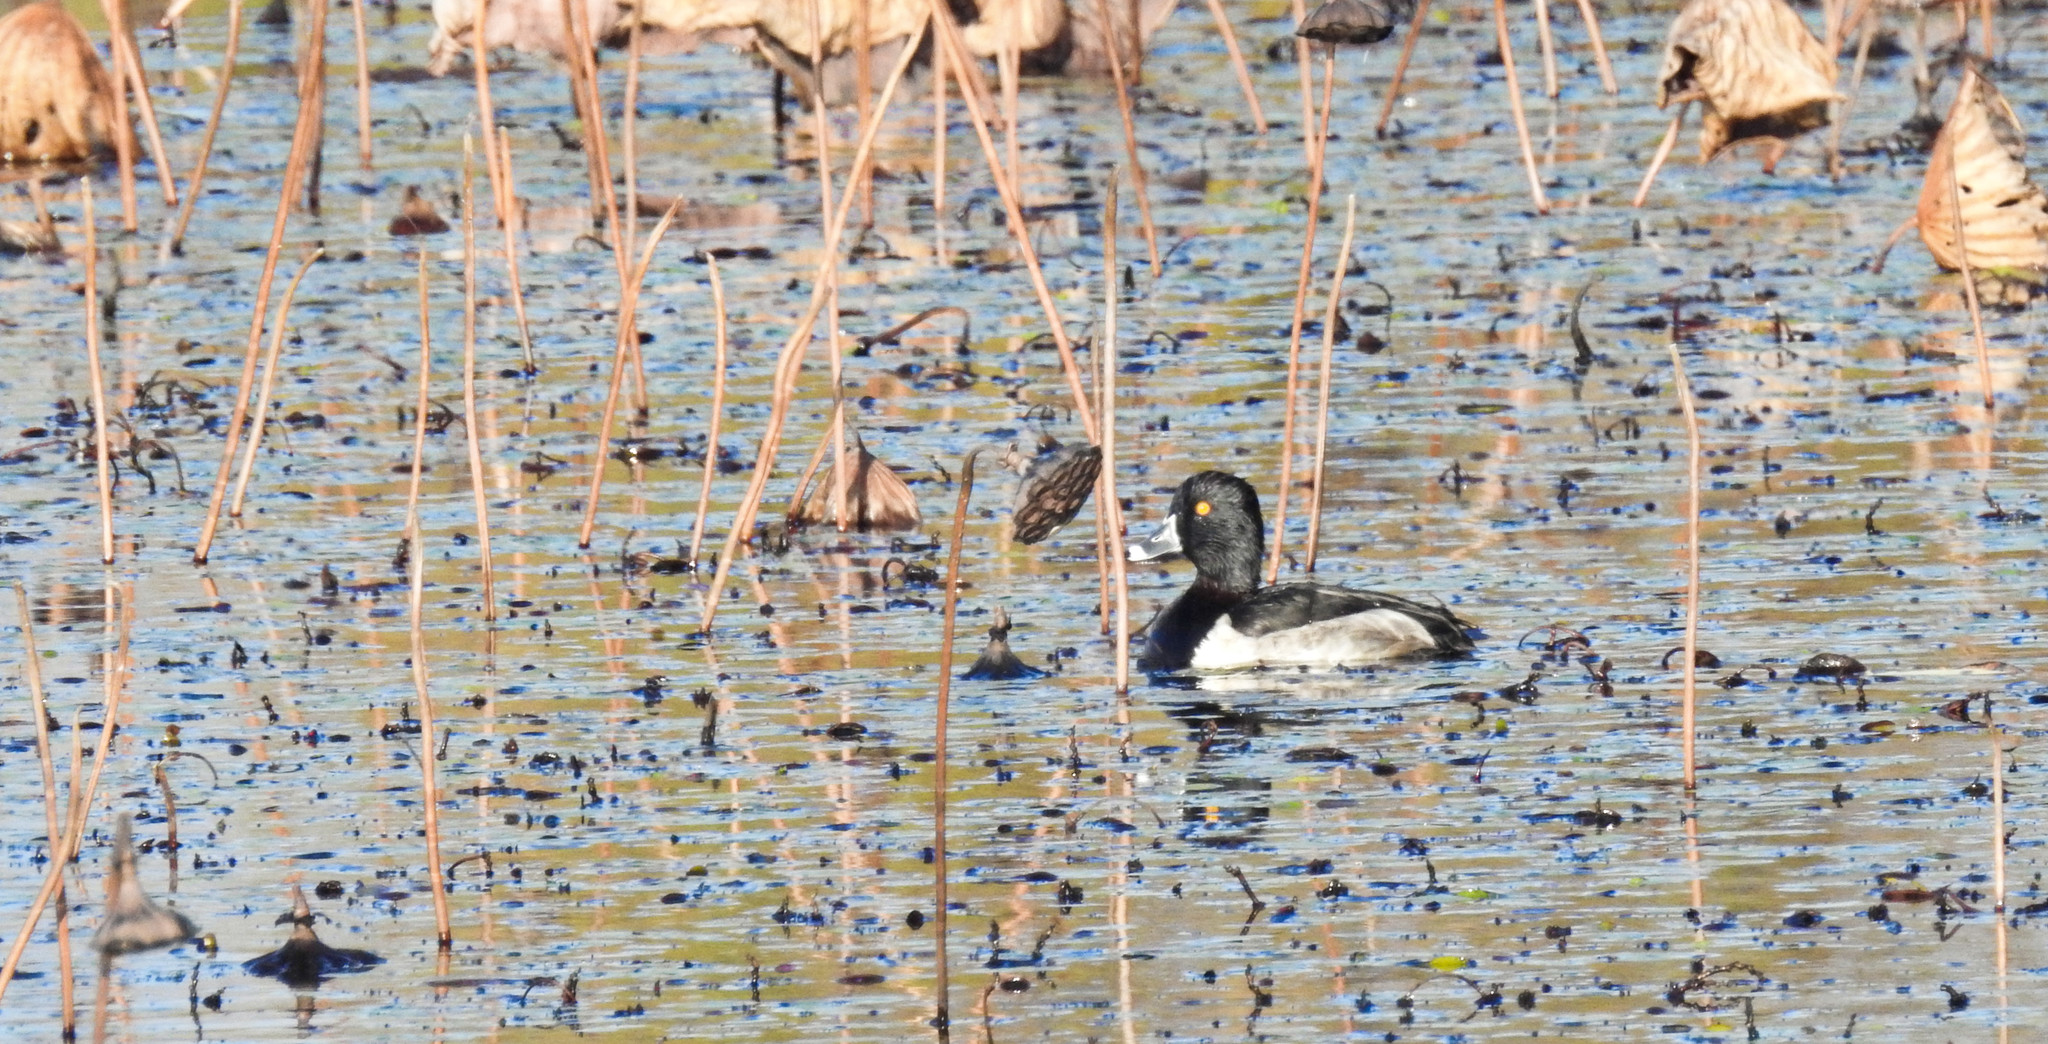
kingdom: Animalia
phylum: Chordata
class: Aves
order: Anseriformes
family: Anatidae
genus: Aythya
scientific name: Aythya collaris
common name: Ring-necked duck
